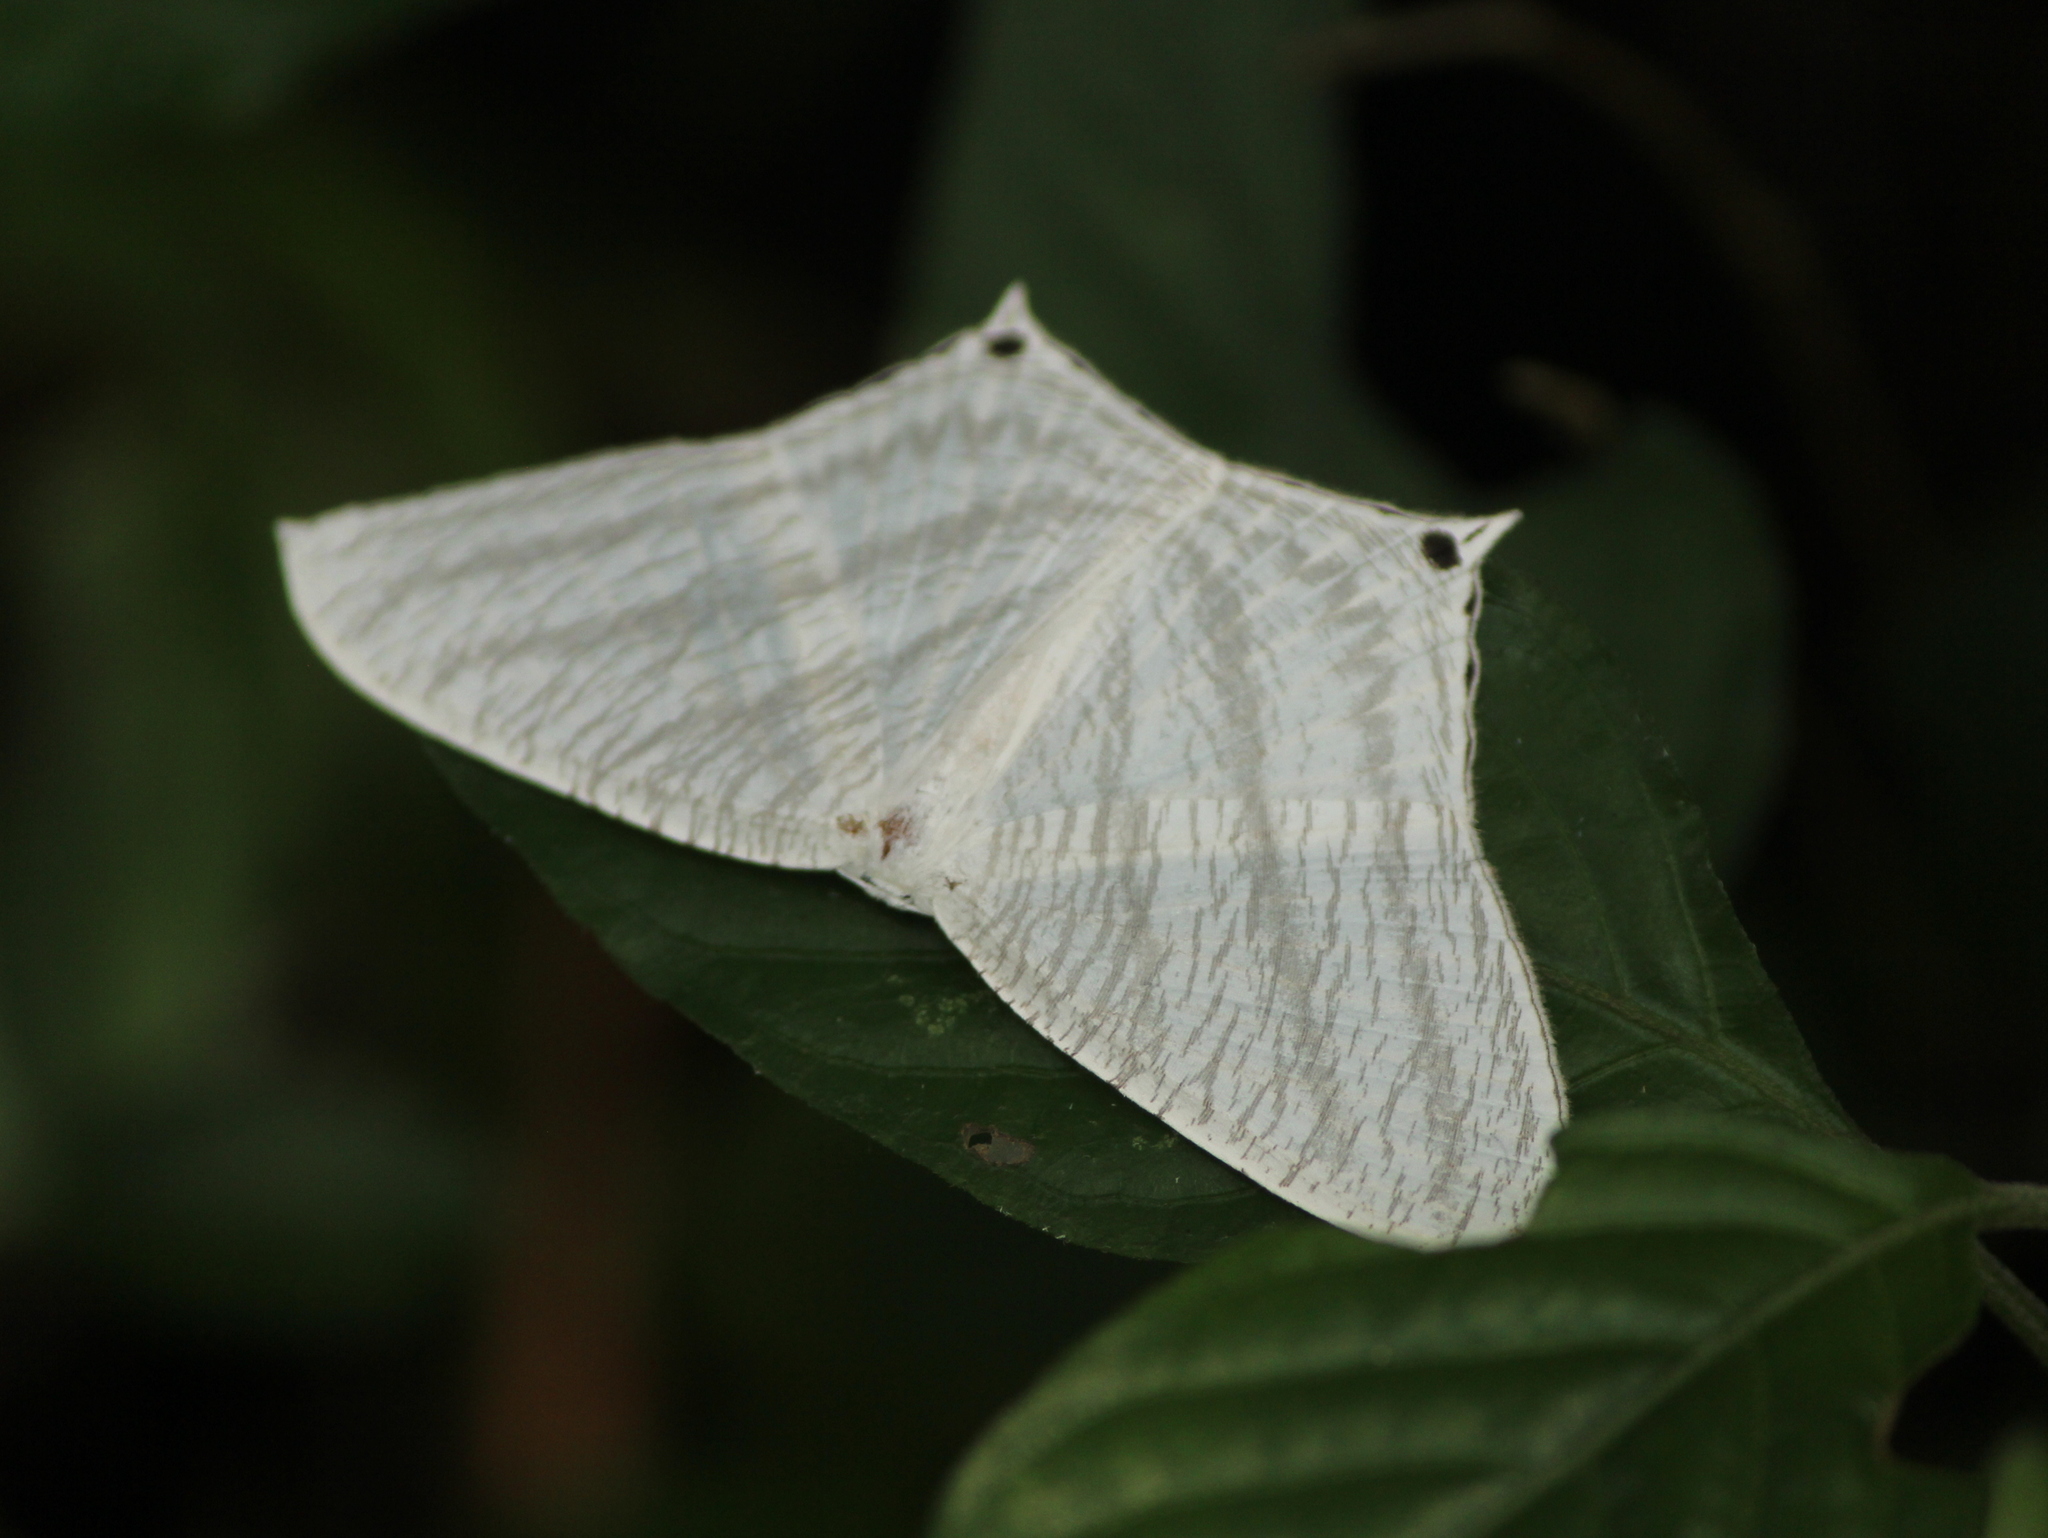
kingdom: Animalia
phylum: Arthropoda
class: Insecta
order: Lepidoptera
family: Uraniidae
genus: Micronia
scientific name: Micronia aculeata
